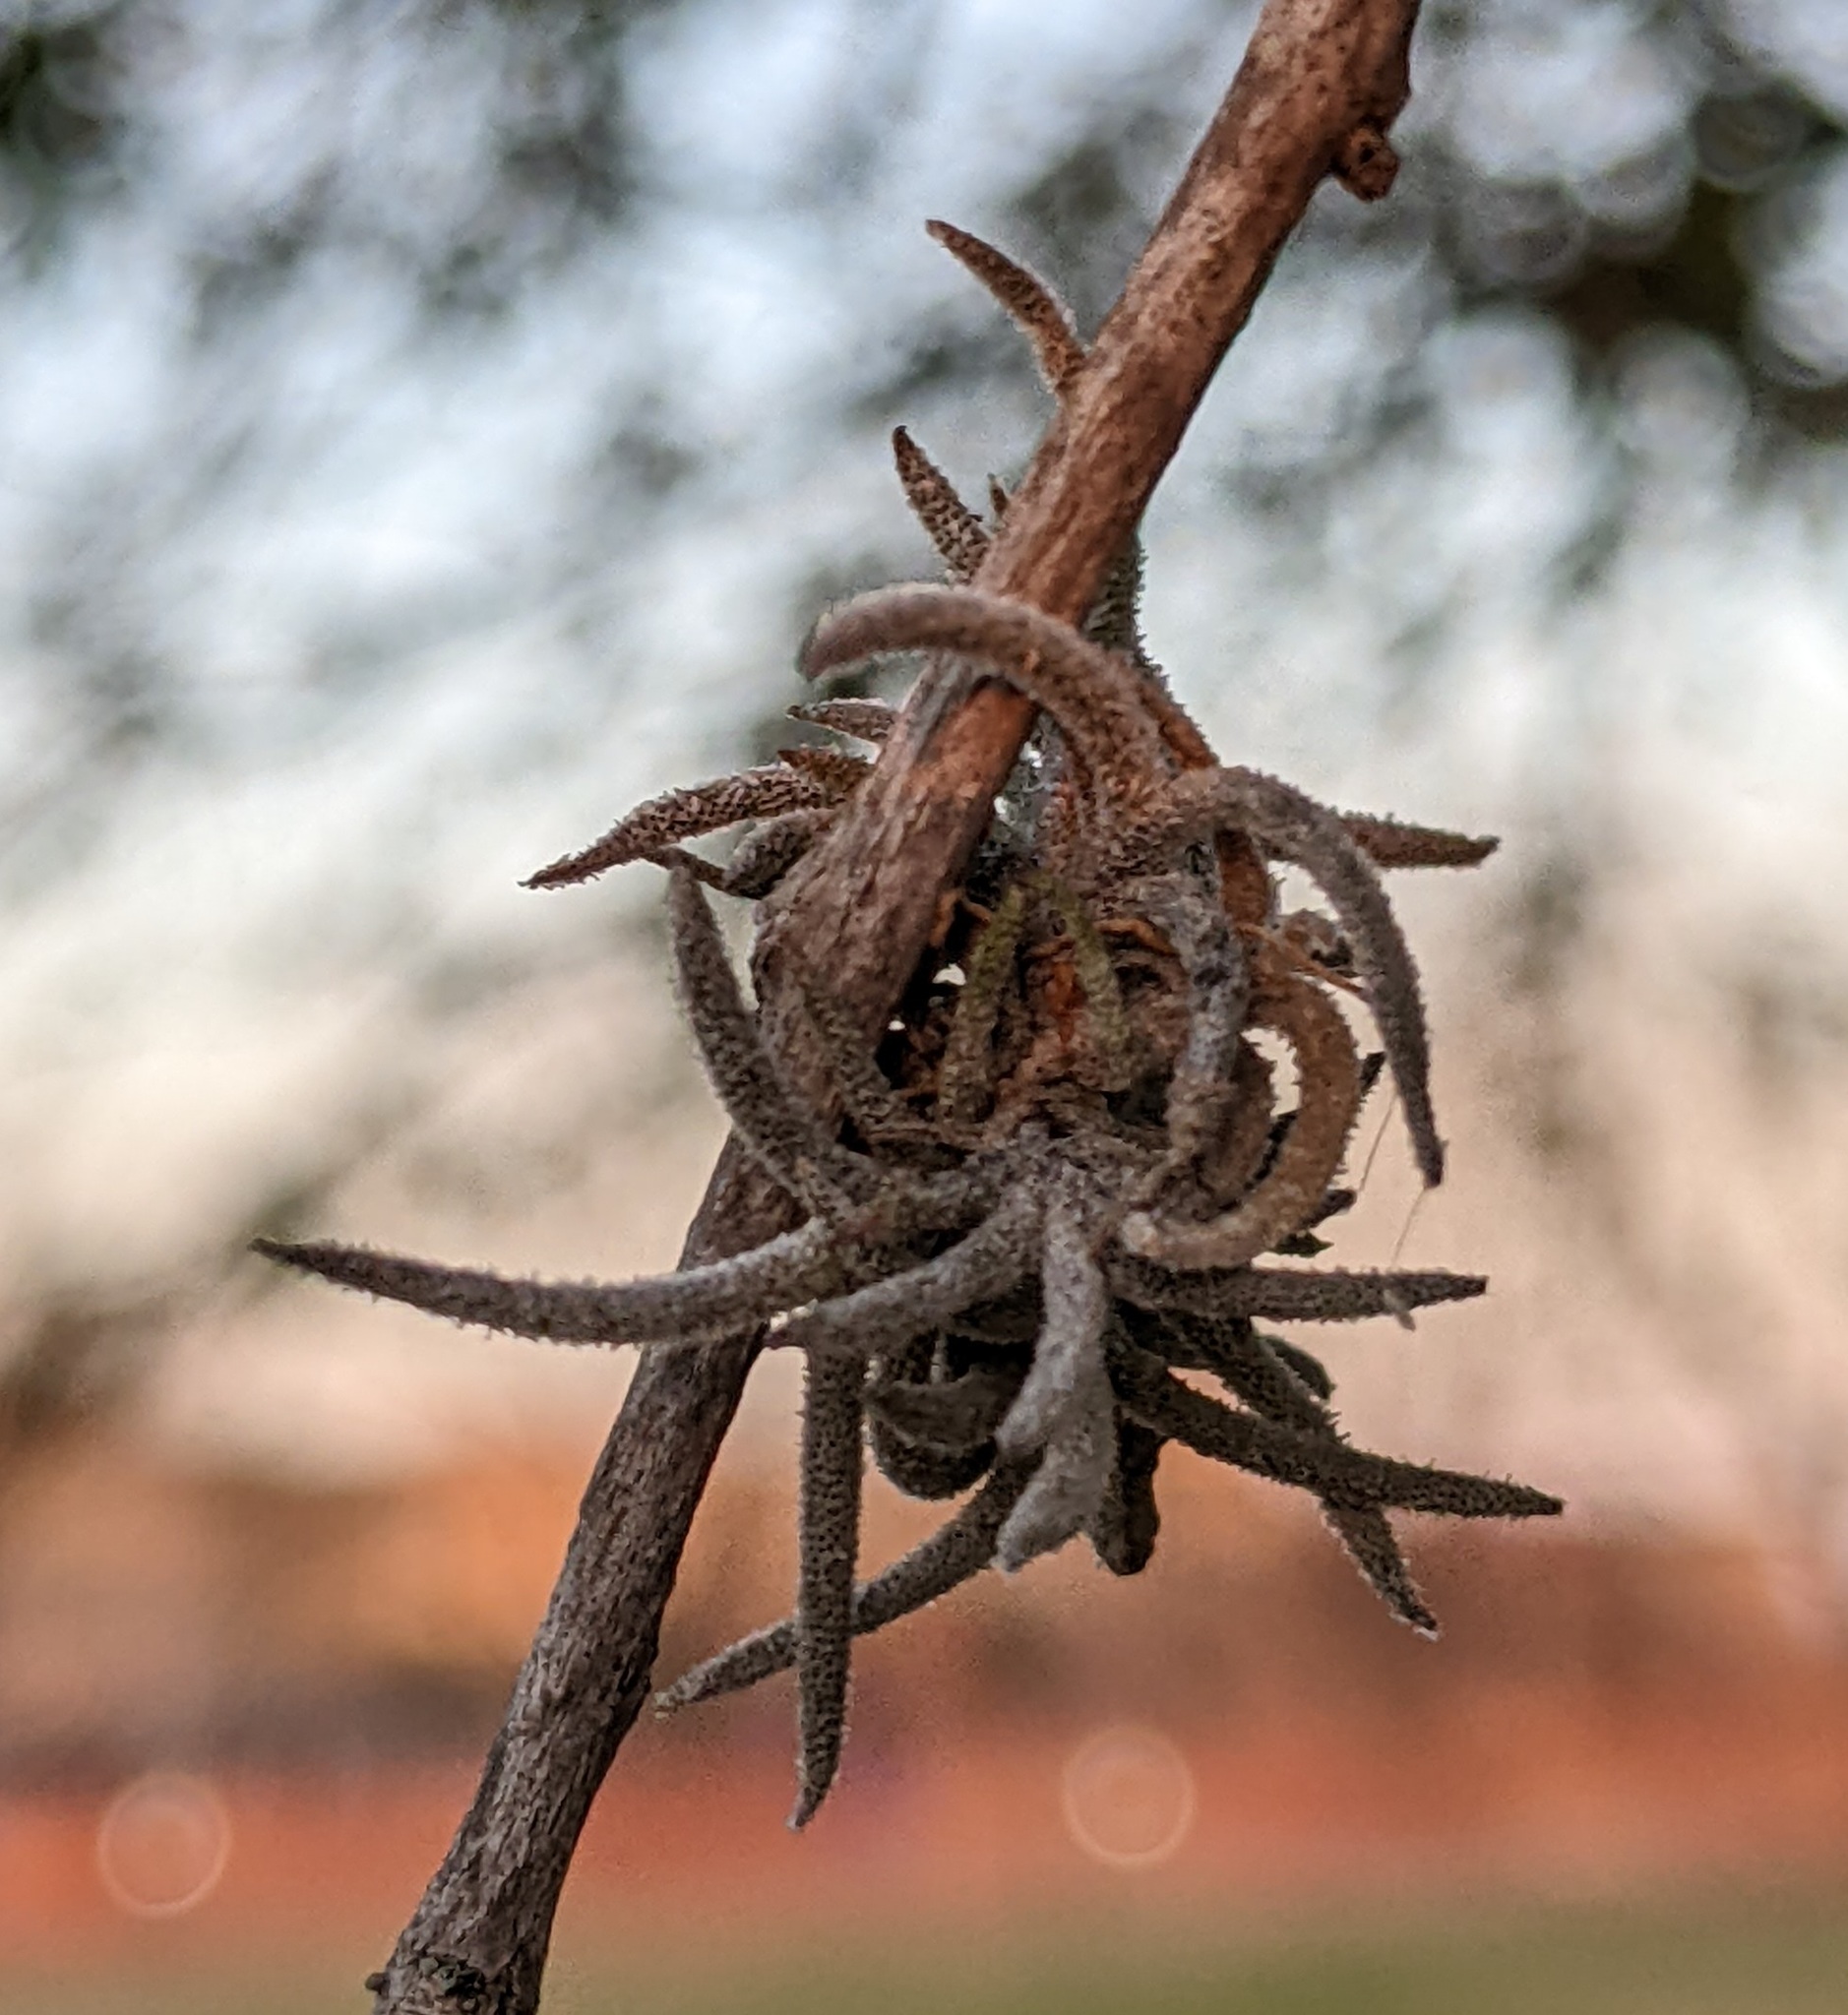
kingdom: Plantae
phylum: Tracheophyta
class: Liliopsida
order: Poales
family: Bromeliaceae
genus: Tillandsia
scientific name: Tillandsia recurvata
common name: Small ballmoss
